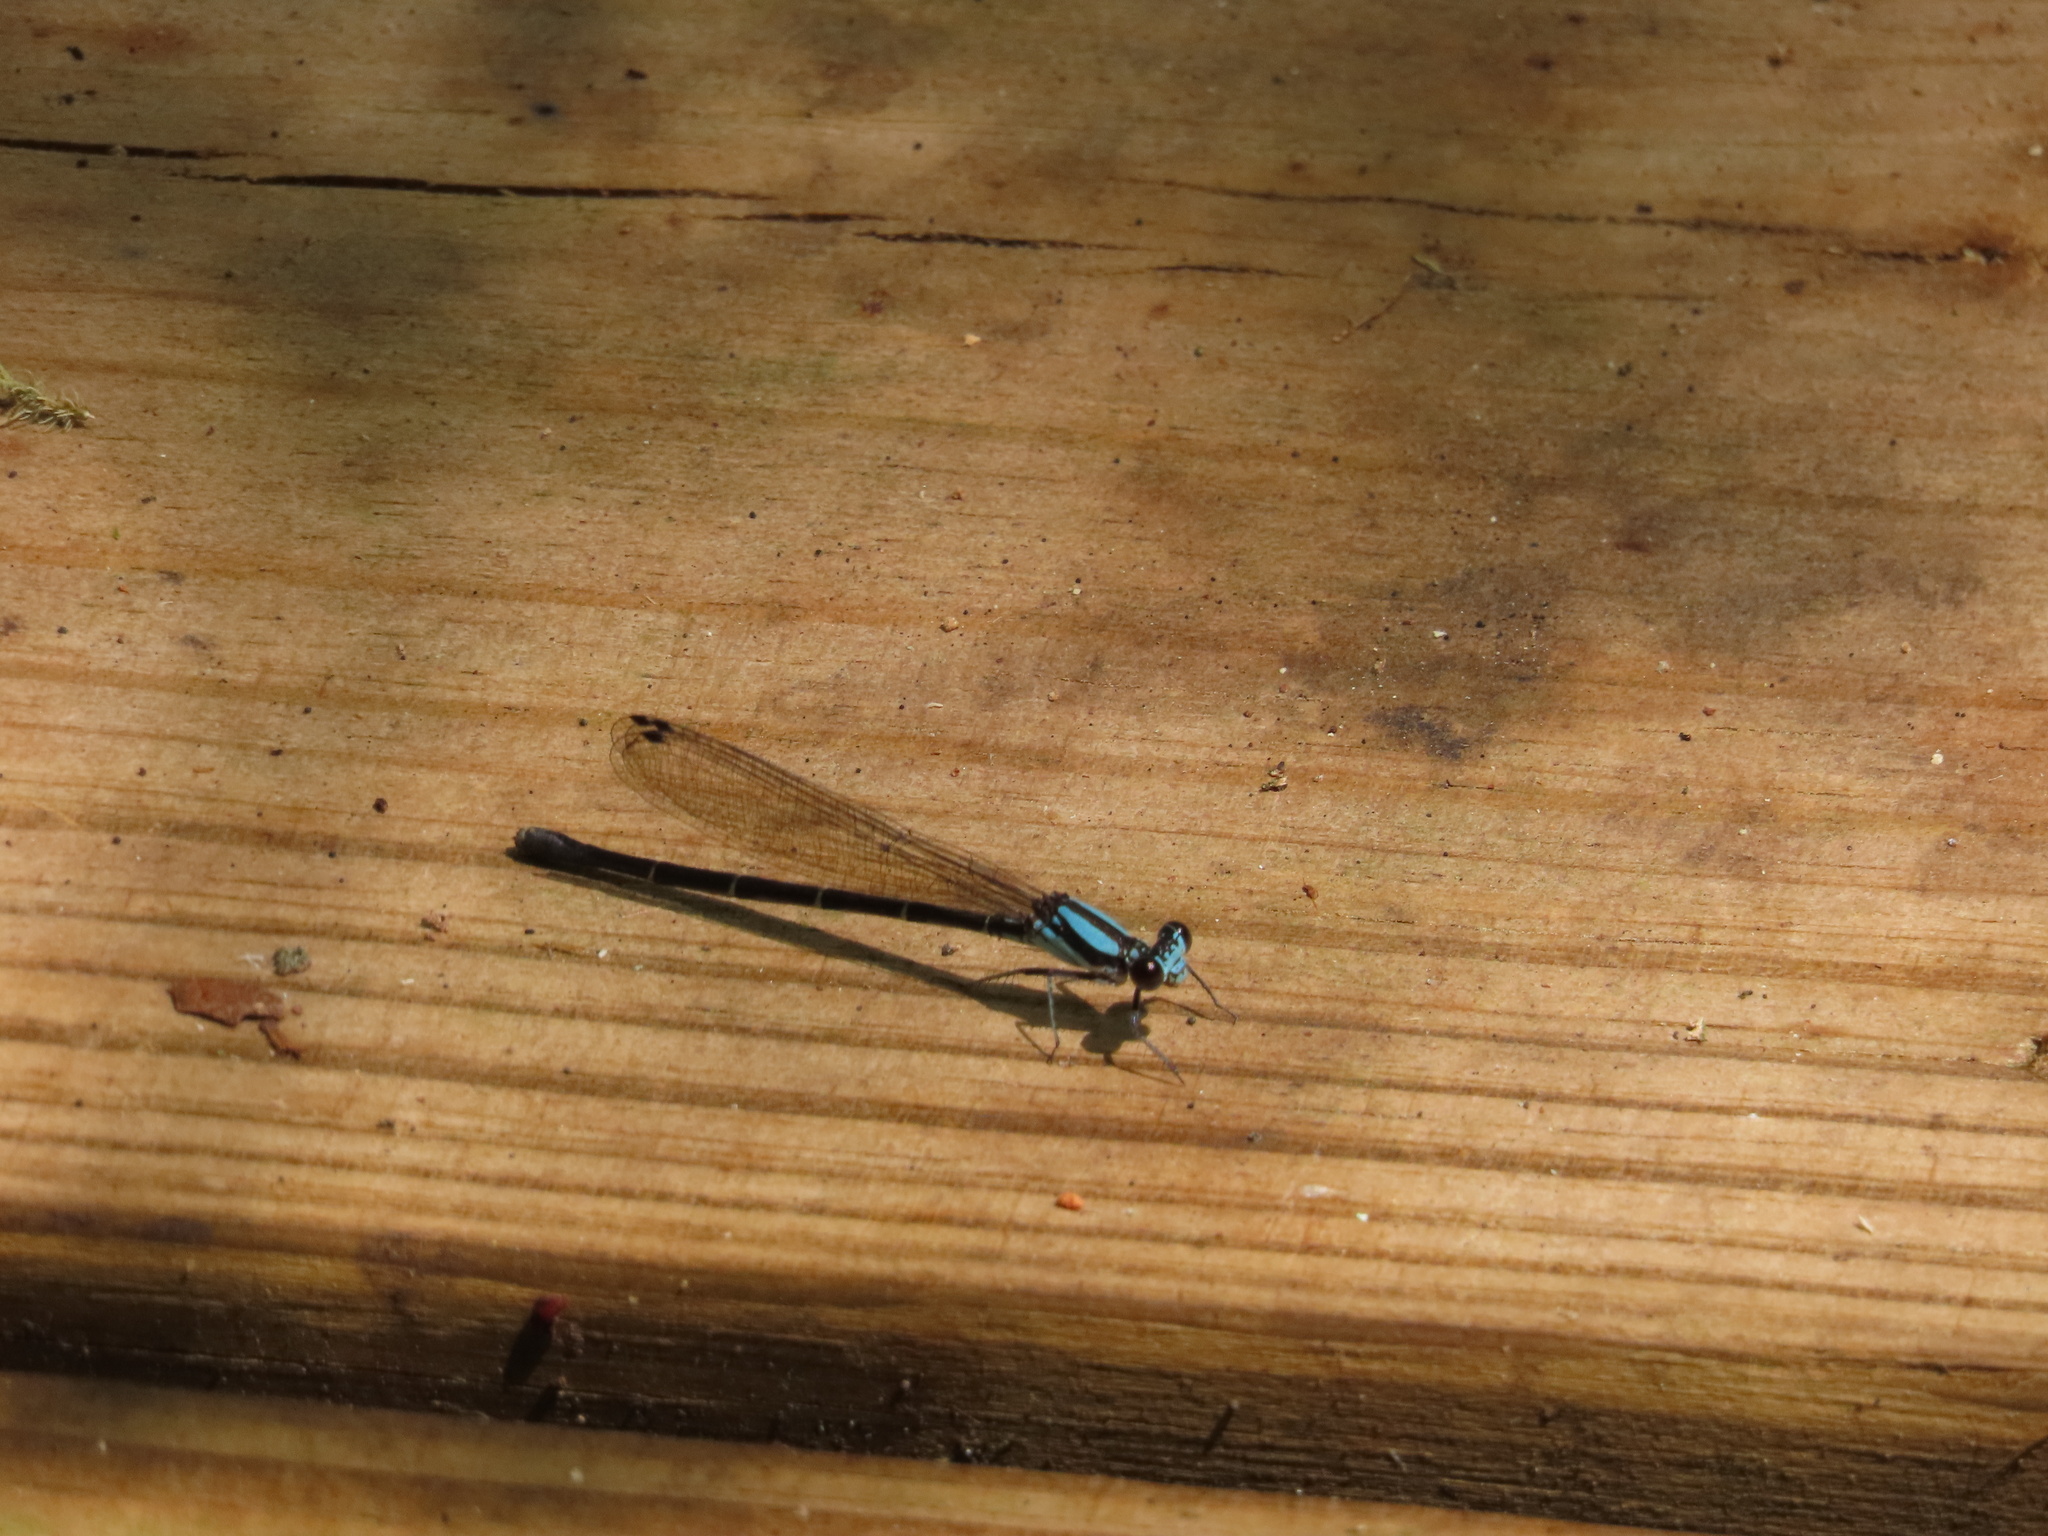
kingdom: Animalia
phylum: Arthropoda
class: Insecta
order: Odonata
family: Coenagrionidae
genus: Argia
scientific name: Argia tibialis
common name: Blue-tipped dancer
